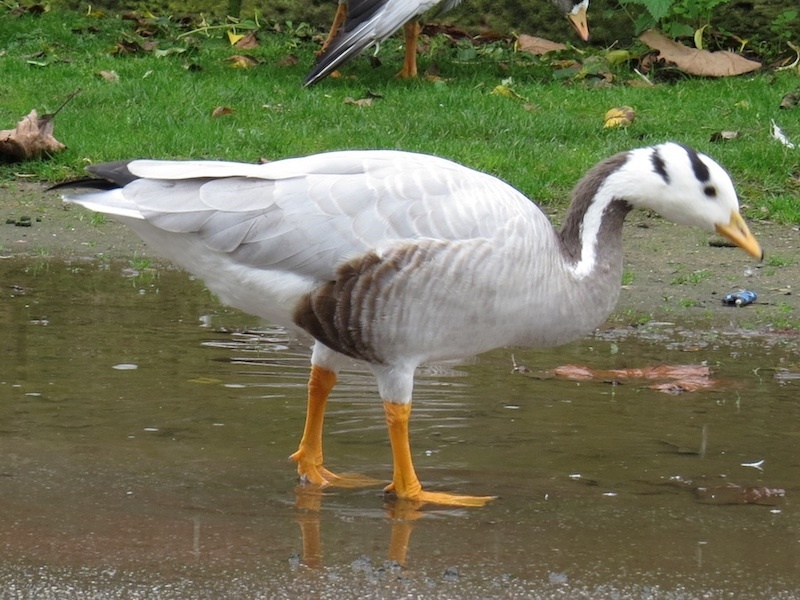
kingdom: Animalia
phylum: Chordata
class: Aves
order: Anseriformes
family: Anatidae
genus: Anser
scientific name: Anser indicus
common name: Bar-headed goose
